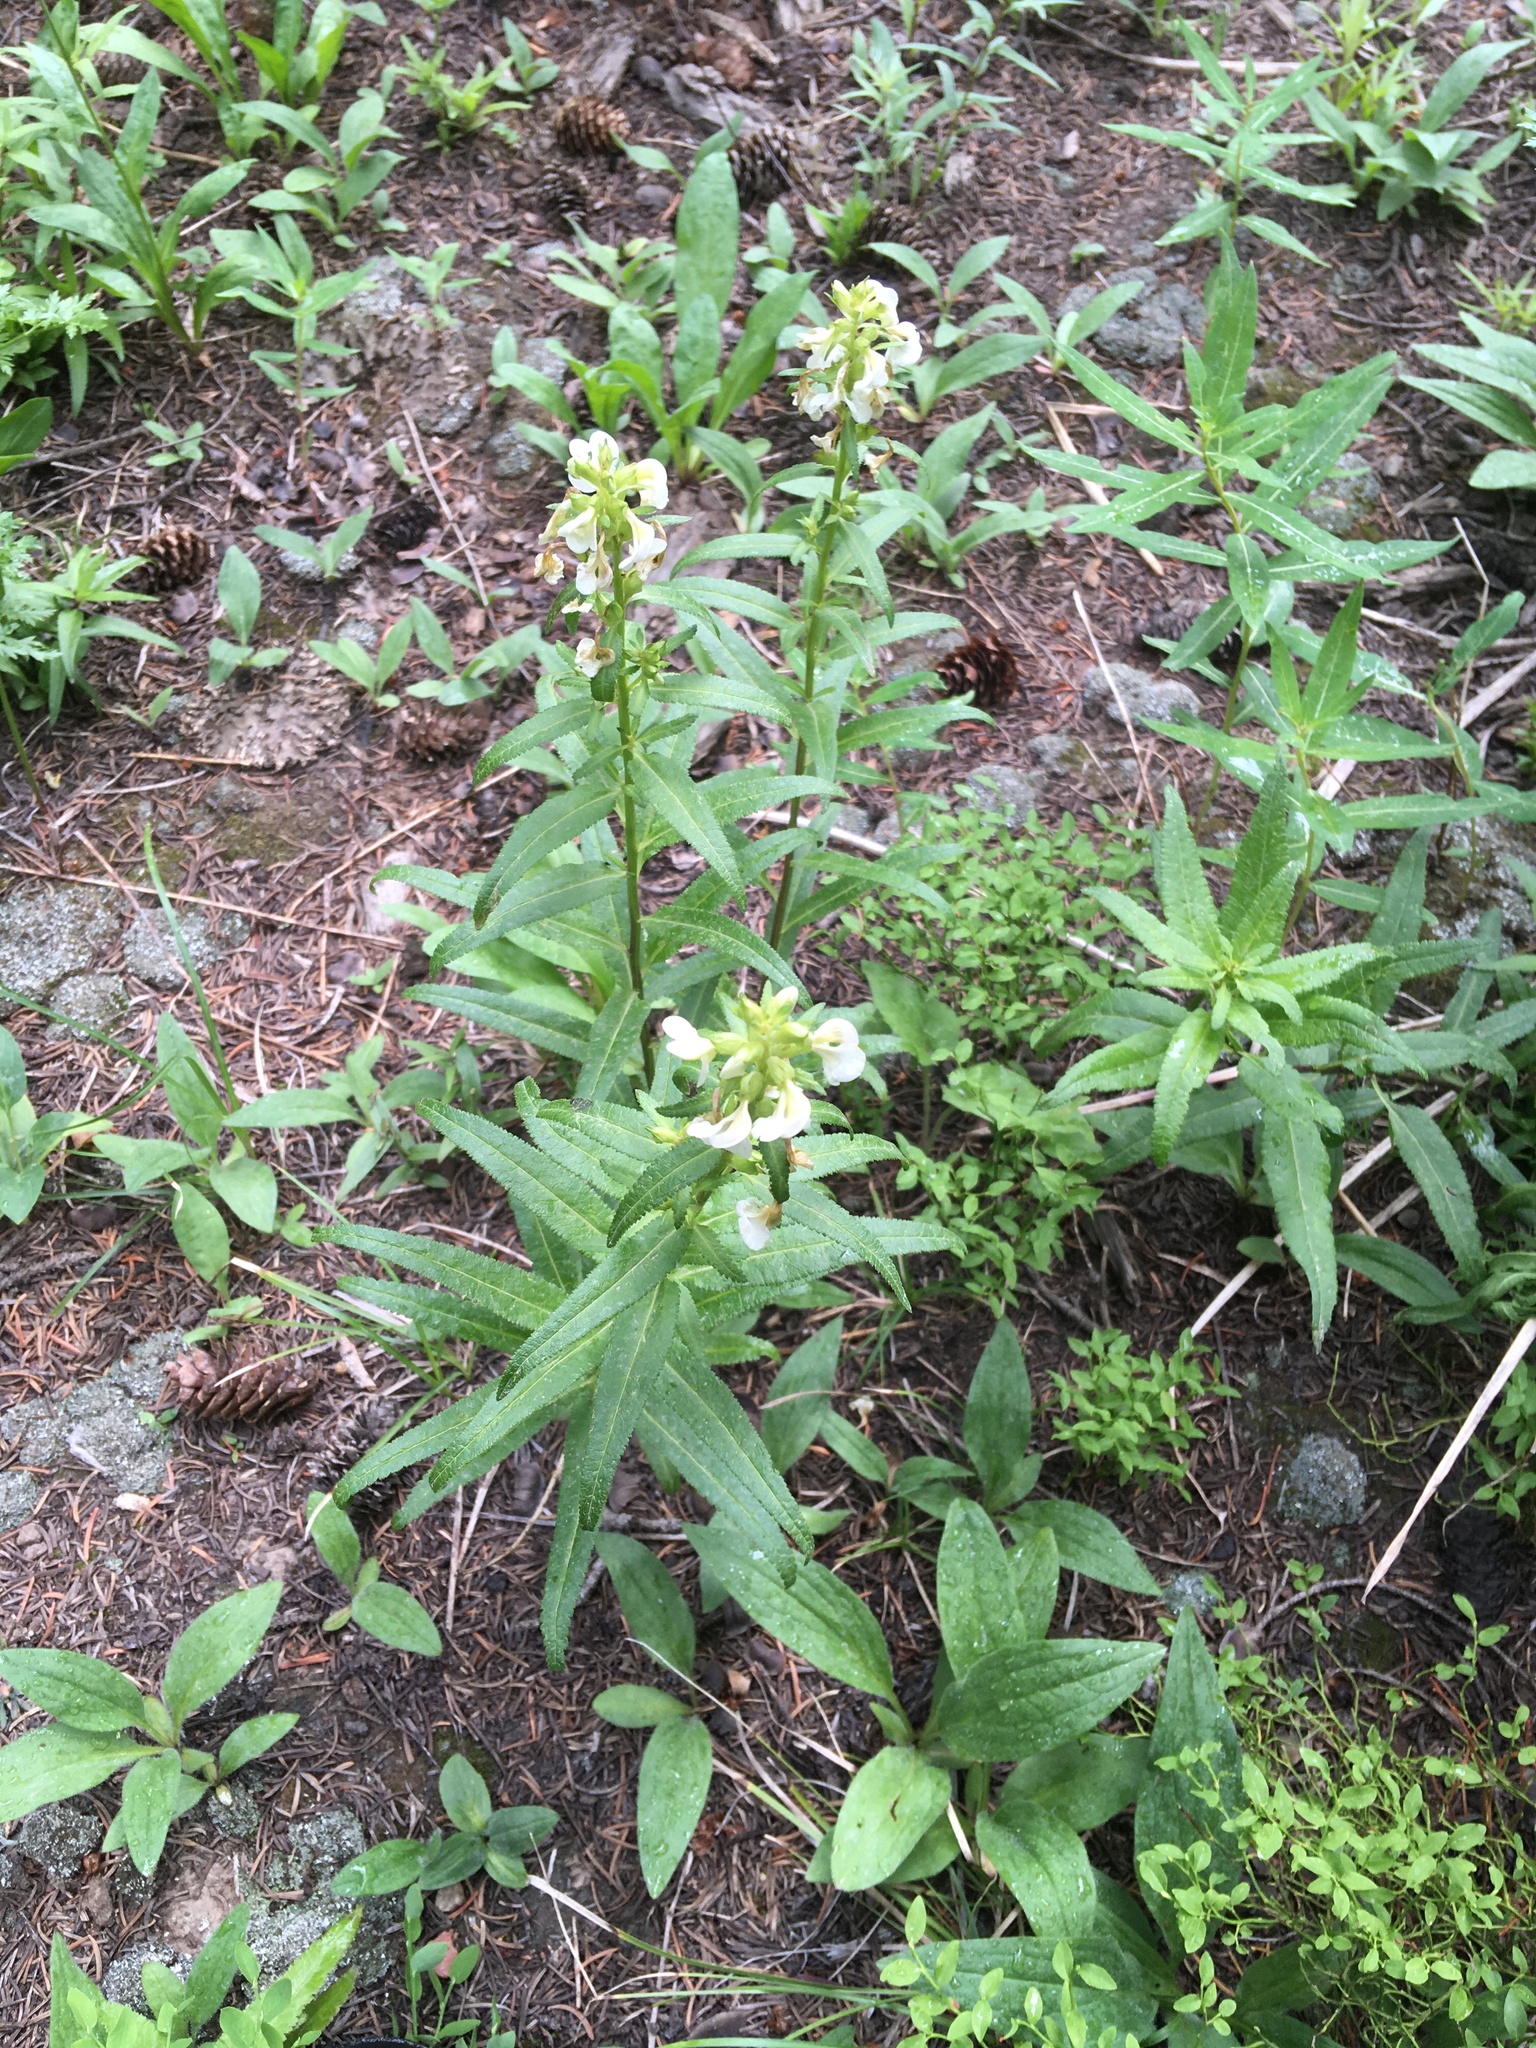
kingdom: Plantae
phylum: Tracheophyta
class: Magnoliopsida
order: Lamiales
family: Orobanchaceae
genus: Pedicularis
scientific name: Pedicularis racemosa
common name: Leafy lousewort
